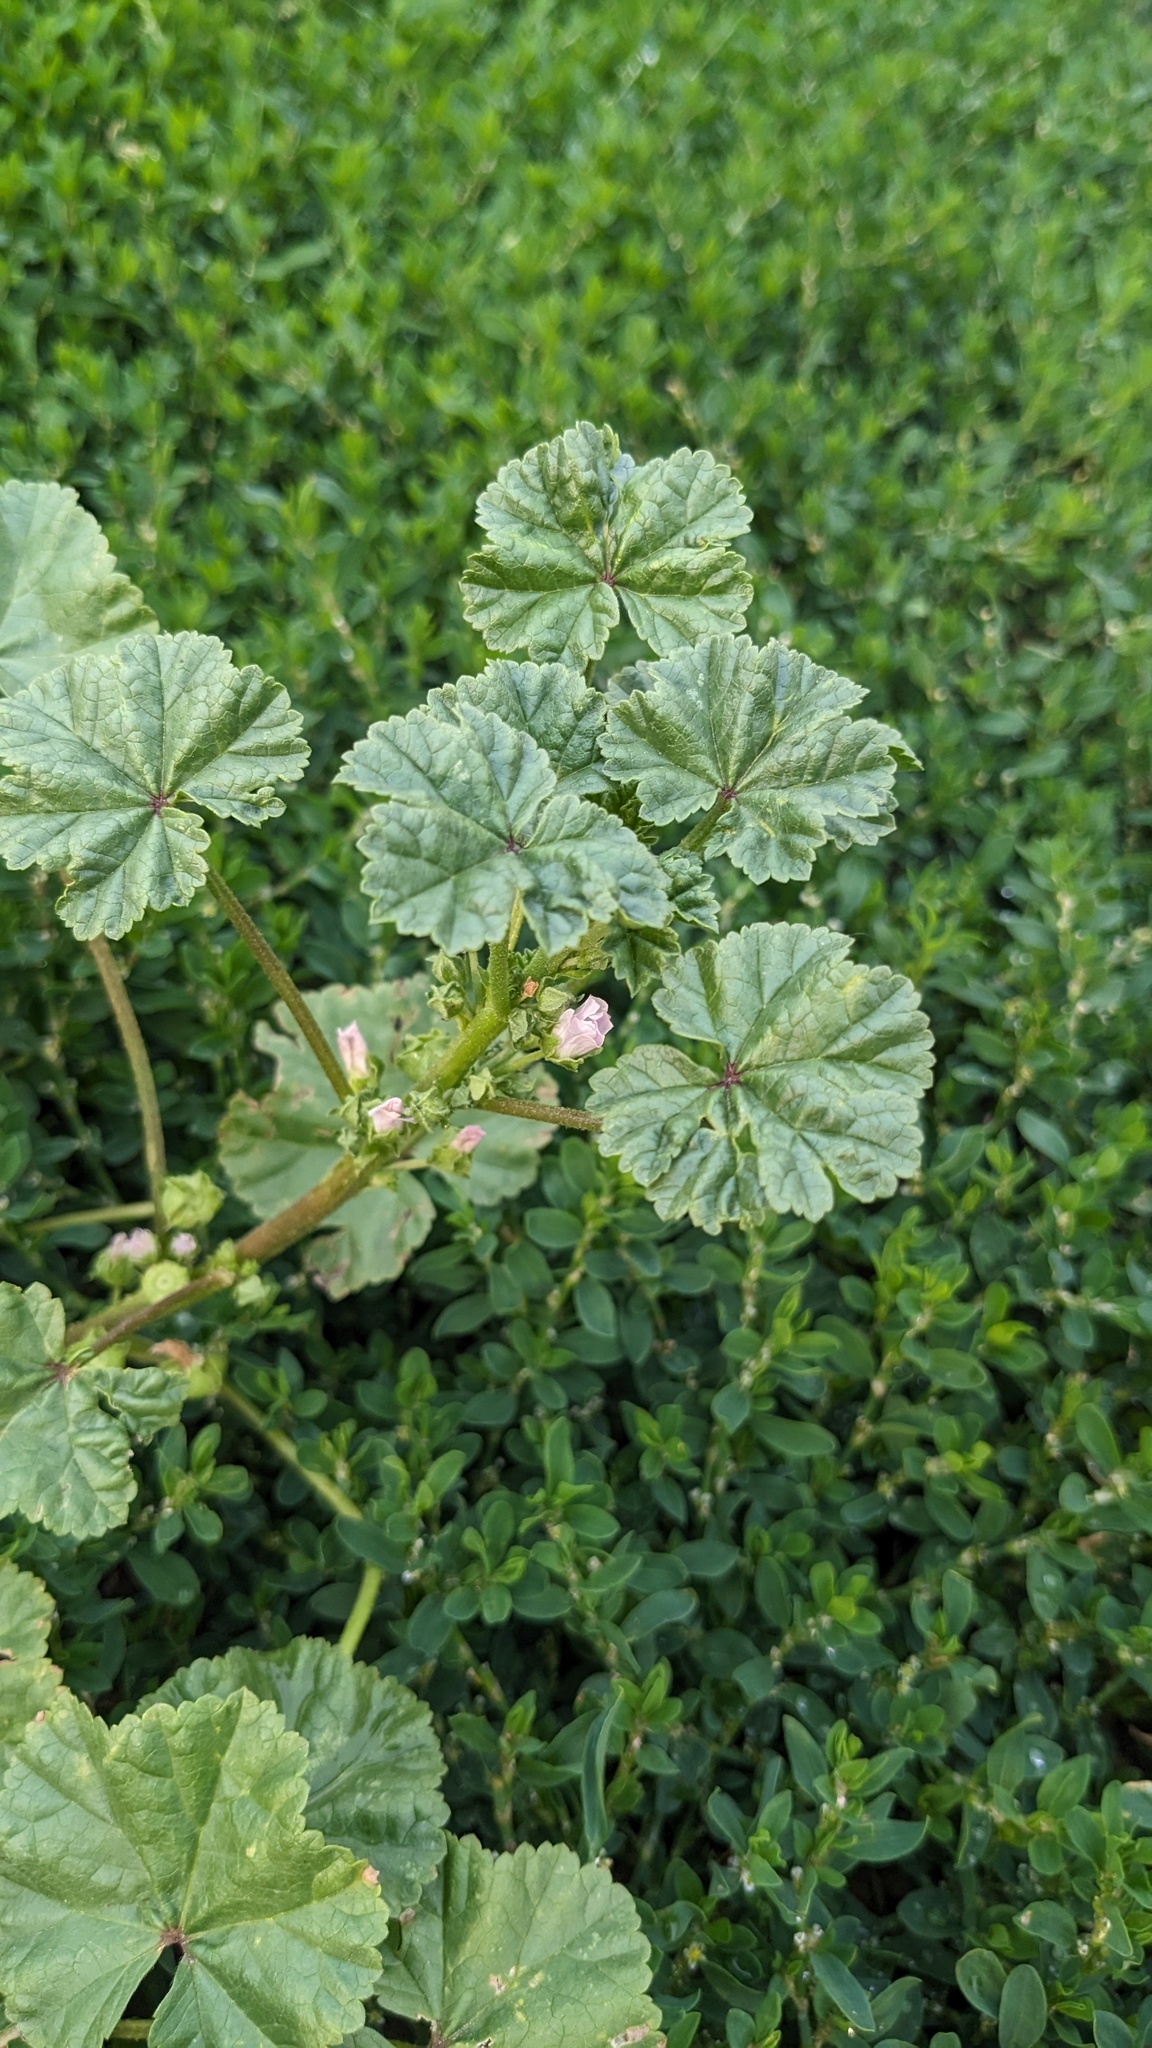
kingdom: Plantae
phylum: Tracheophyta
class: Magnoliopsida
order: Malvales
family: Malvaceae
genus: Malva
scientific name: Malva neglecta
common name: Common mallow
